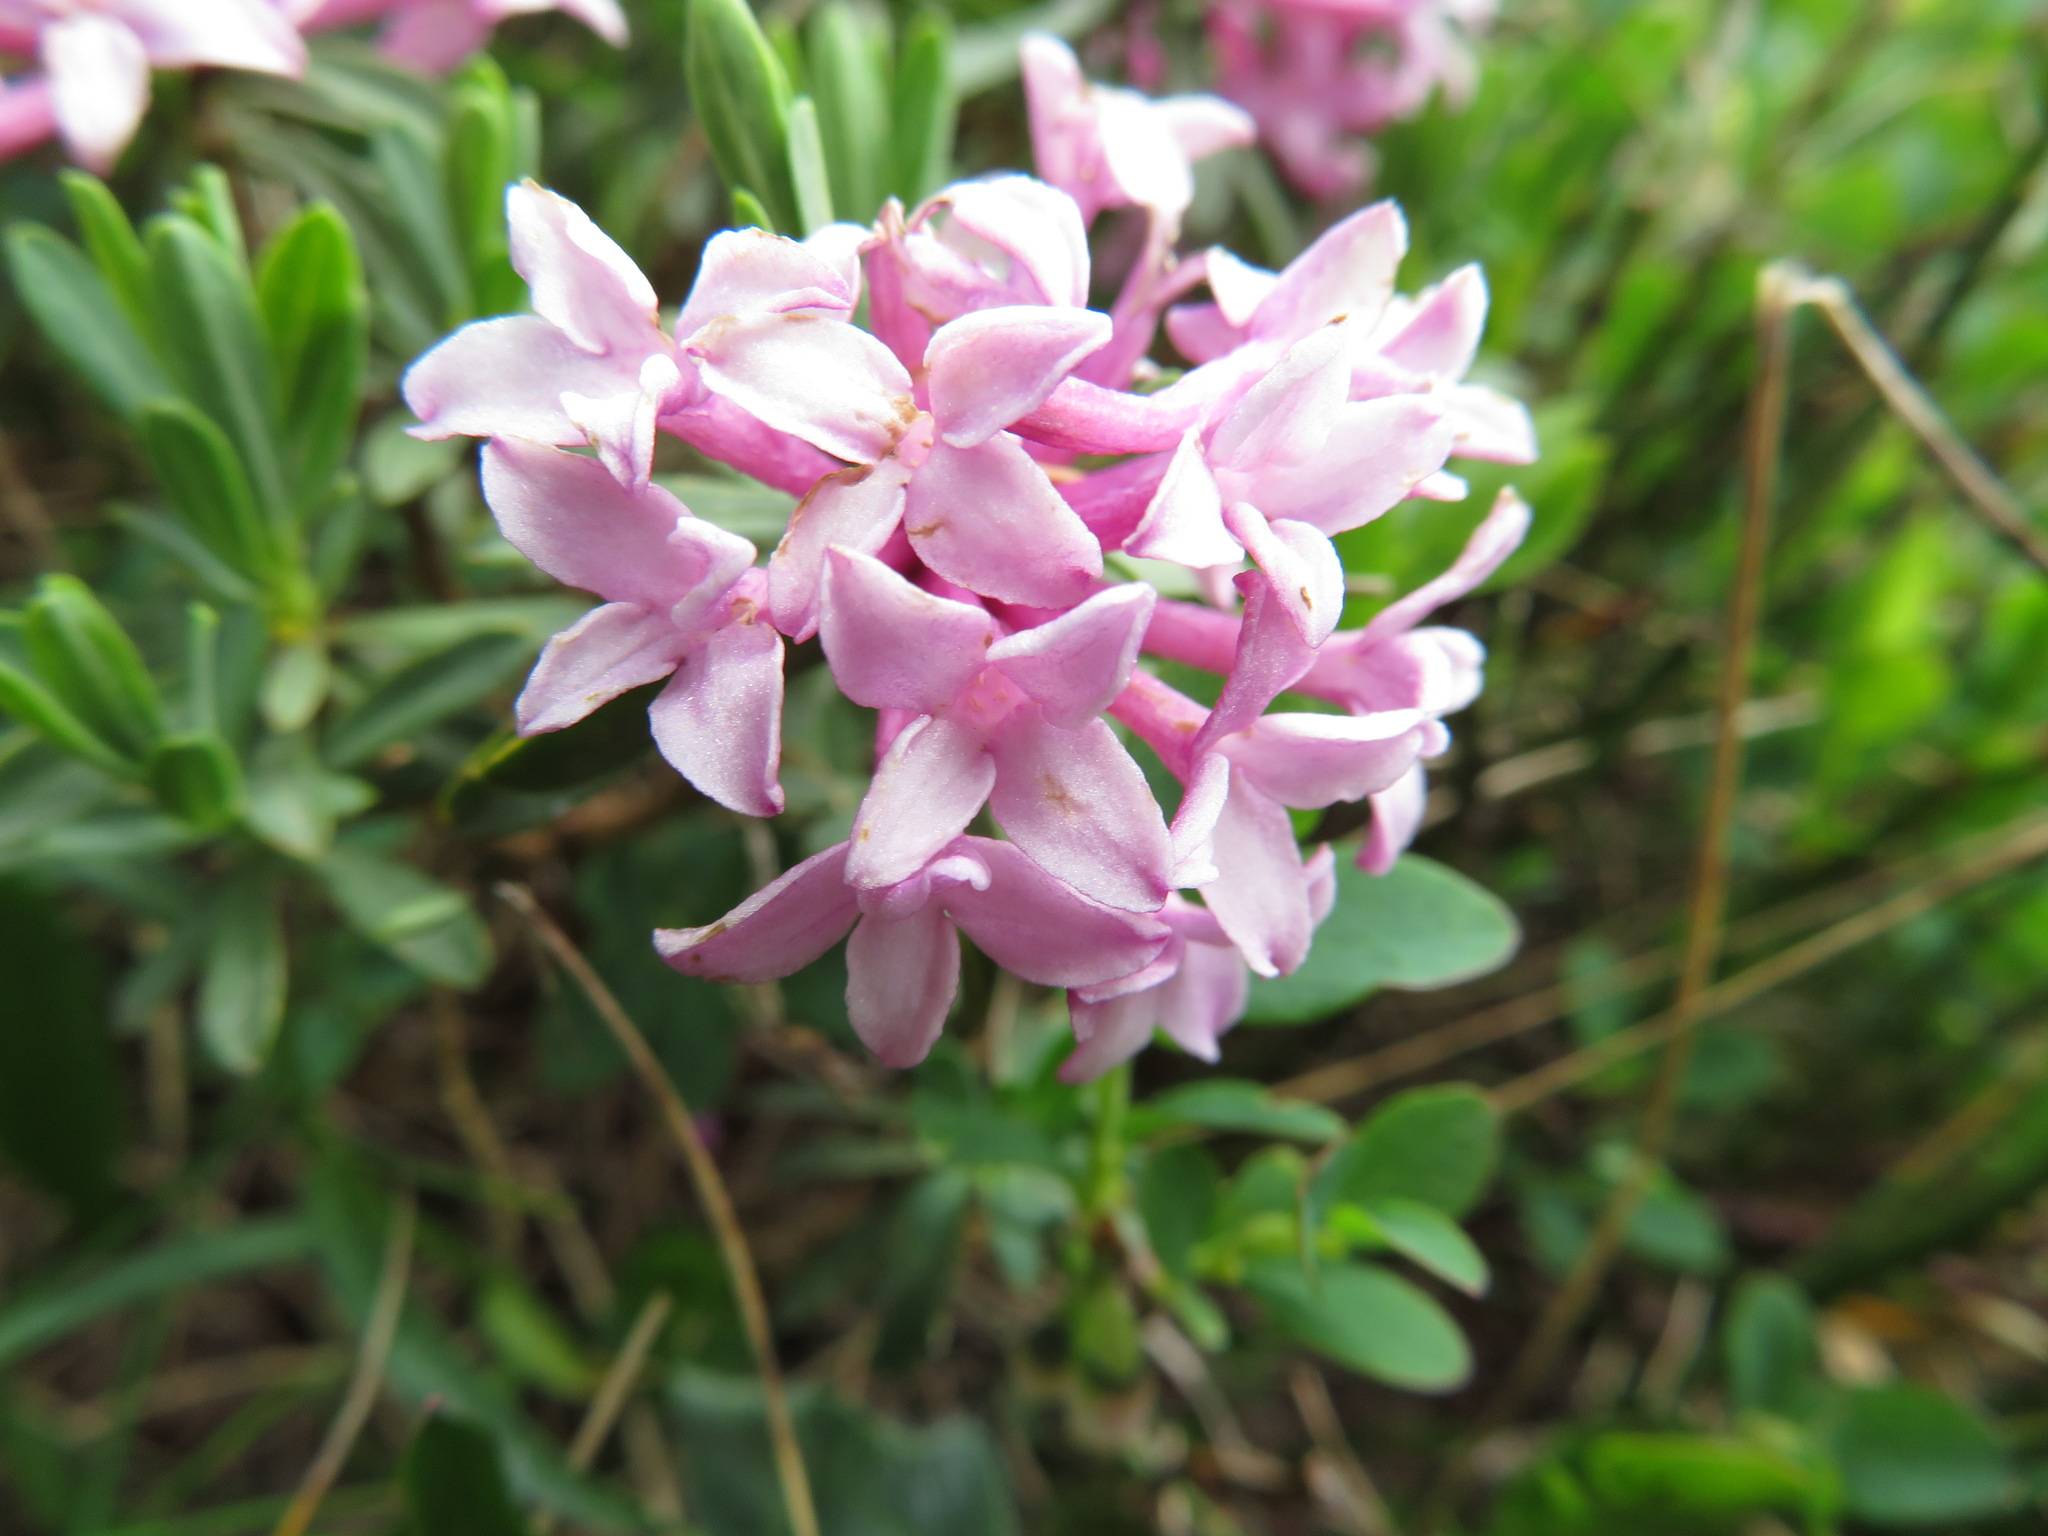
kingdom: Plantae
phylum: Tracheophyta
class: Magnoliopsida
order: Malvales
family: Thymelaeaceae
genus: Daphne
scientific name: Daphne striata
